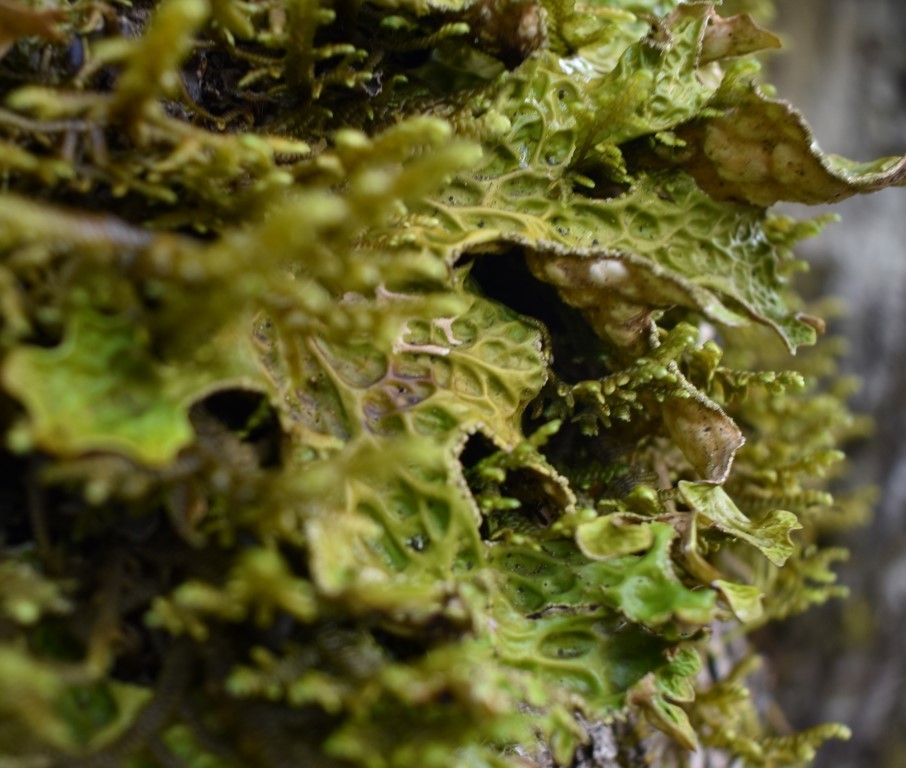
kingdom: Fungi
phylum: Ascomycota
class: Lecanoromycetes
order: Peltigerales
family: Lobariaceae
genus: Lobaria
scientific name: Lobaria pulmonaria
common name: Lungwort
